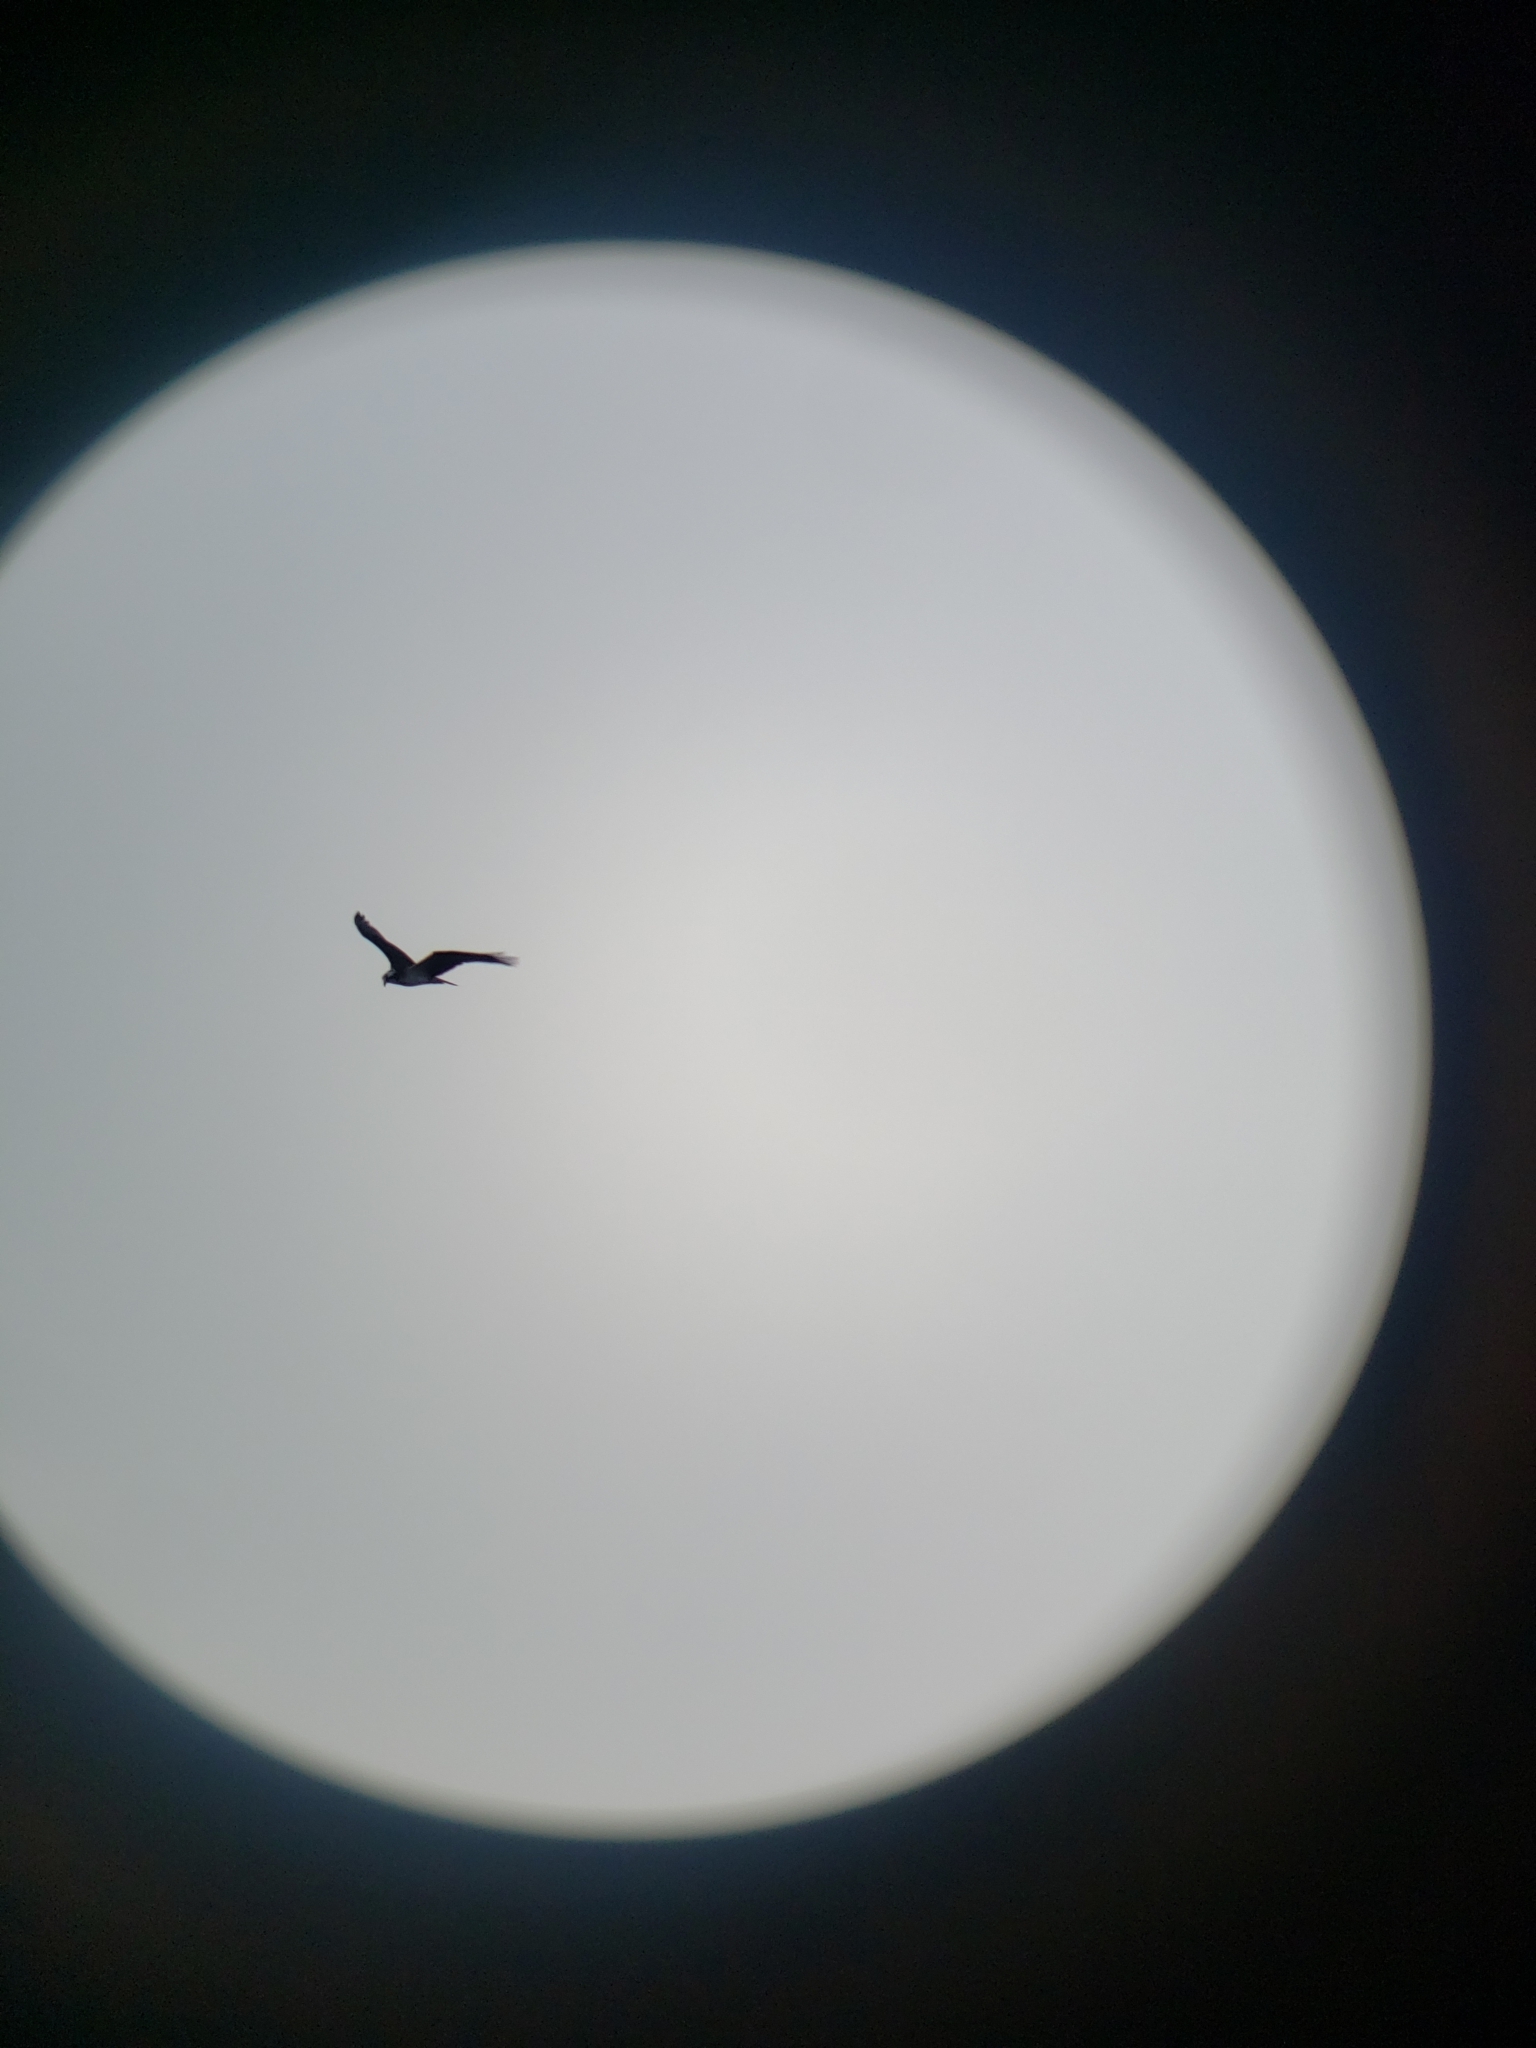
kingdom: Animalia
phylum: Chordata
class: Aves
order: Accipitriformes
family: Pandionidae
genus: Pandion
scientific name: Pandion haliaetus
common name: Osprey
